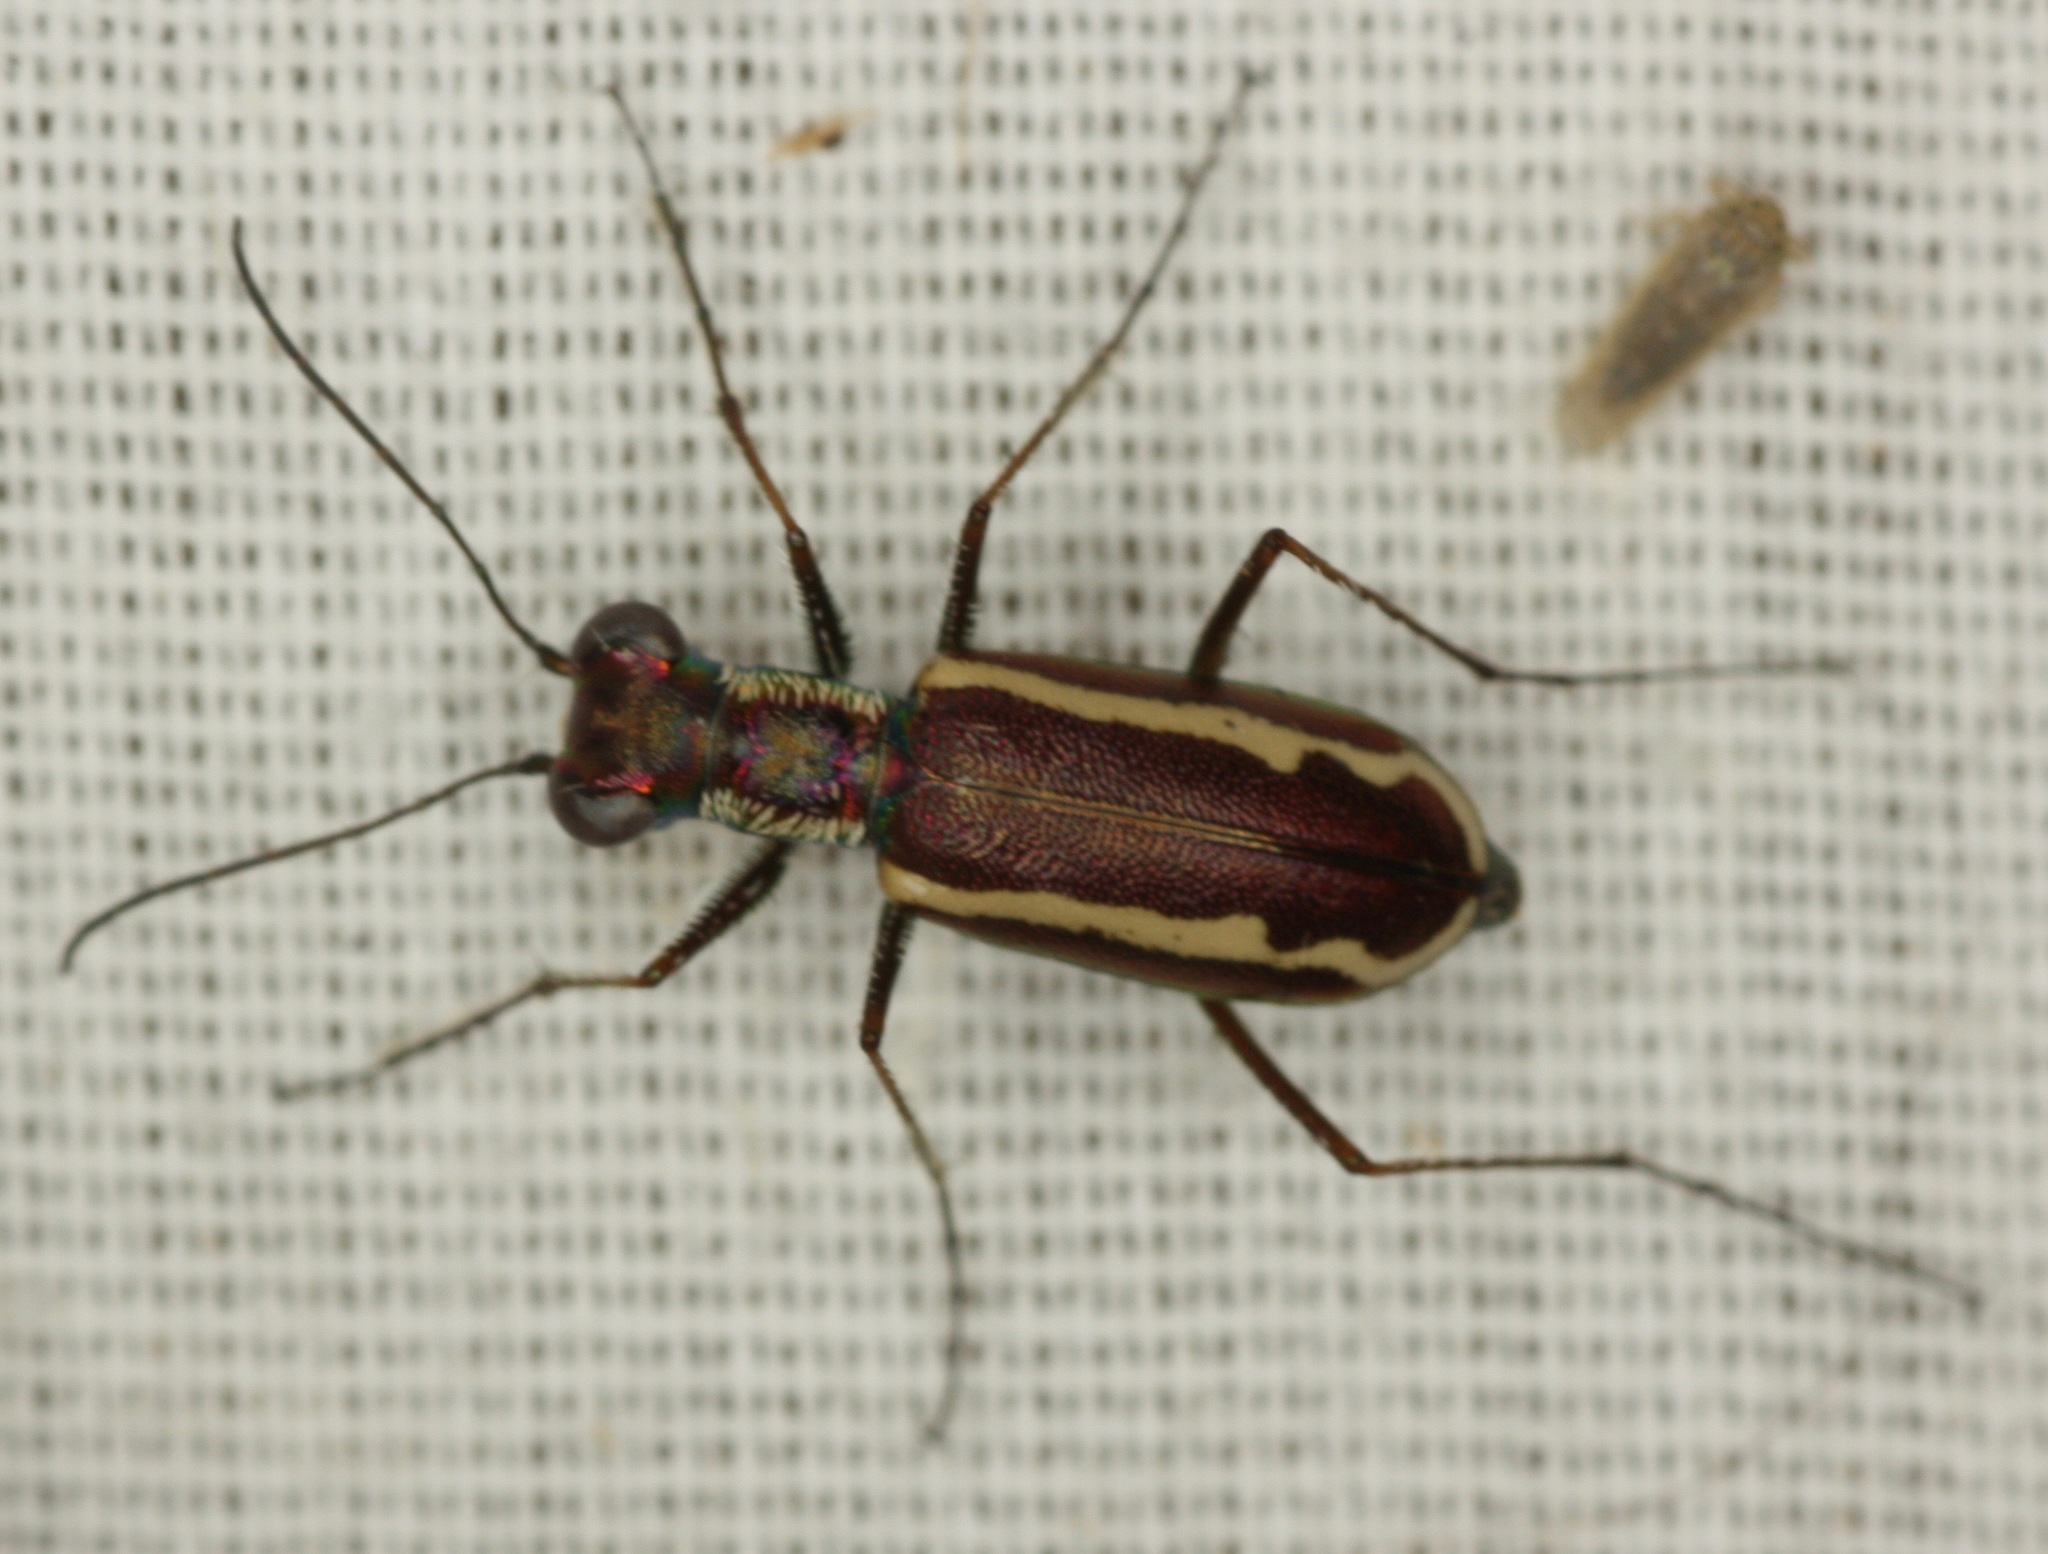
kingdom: Animalia
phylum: Arthropoda
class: Insecta
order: Coleoptera
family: Carabidae
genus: Cylindera
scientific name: Cylindera lemniscata
